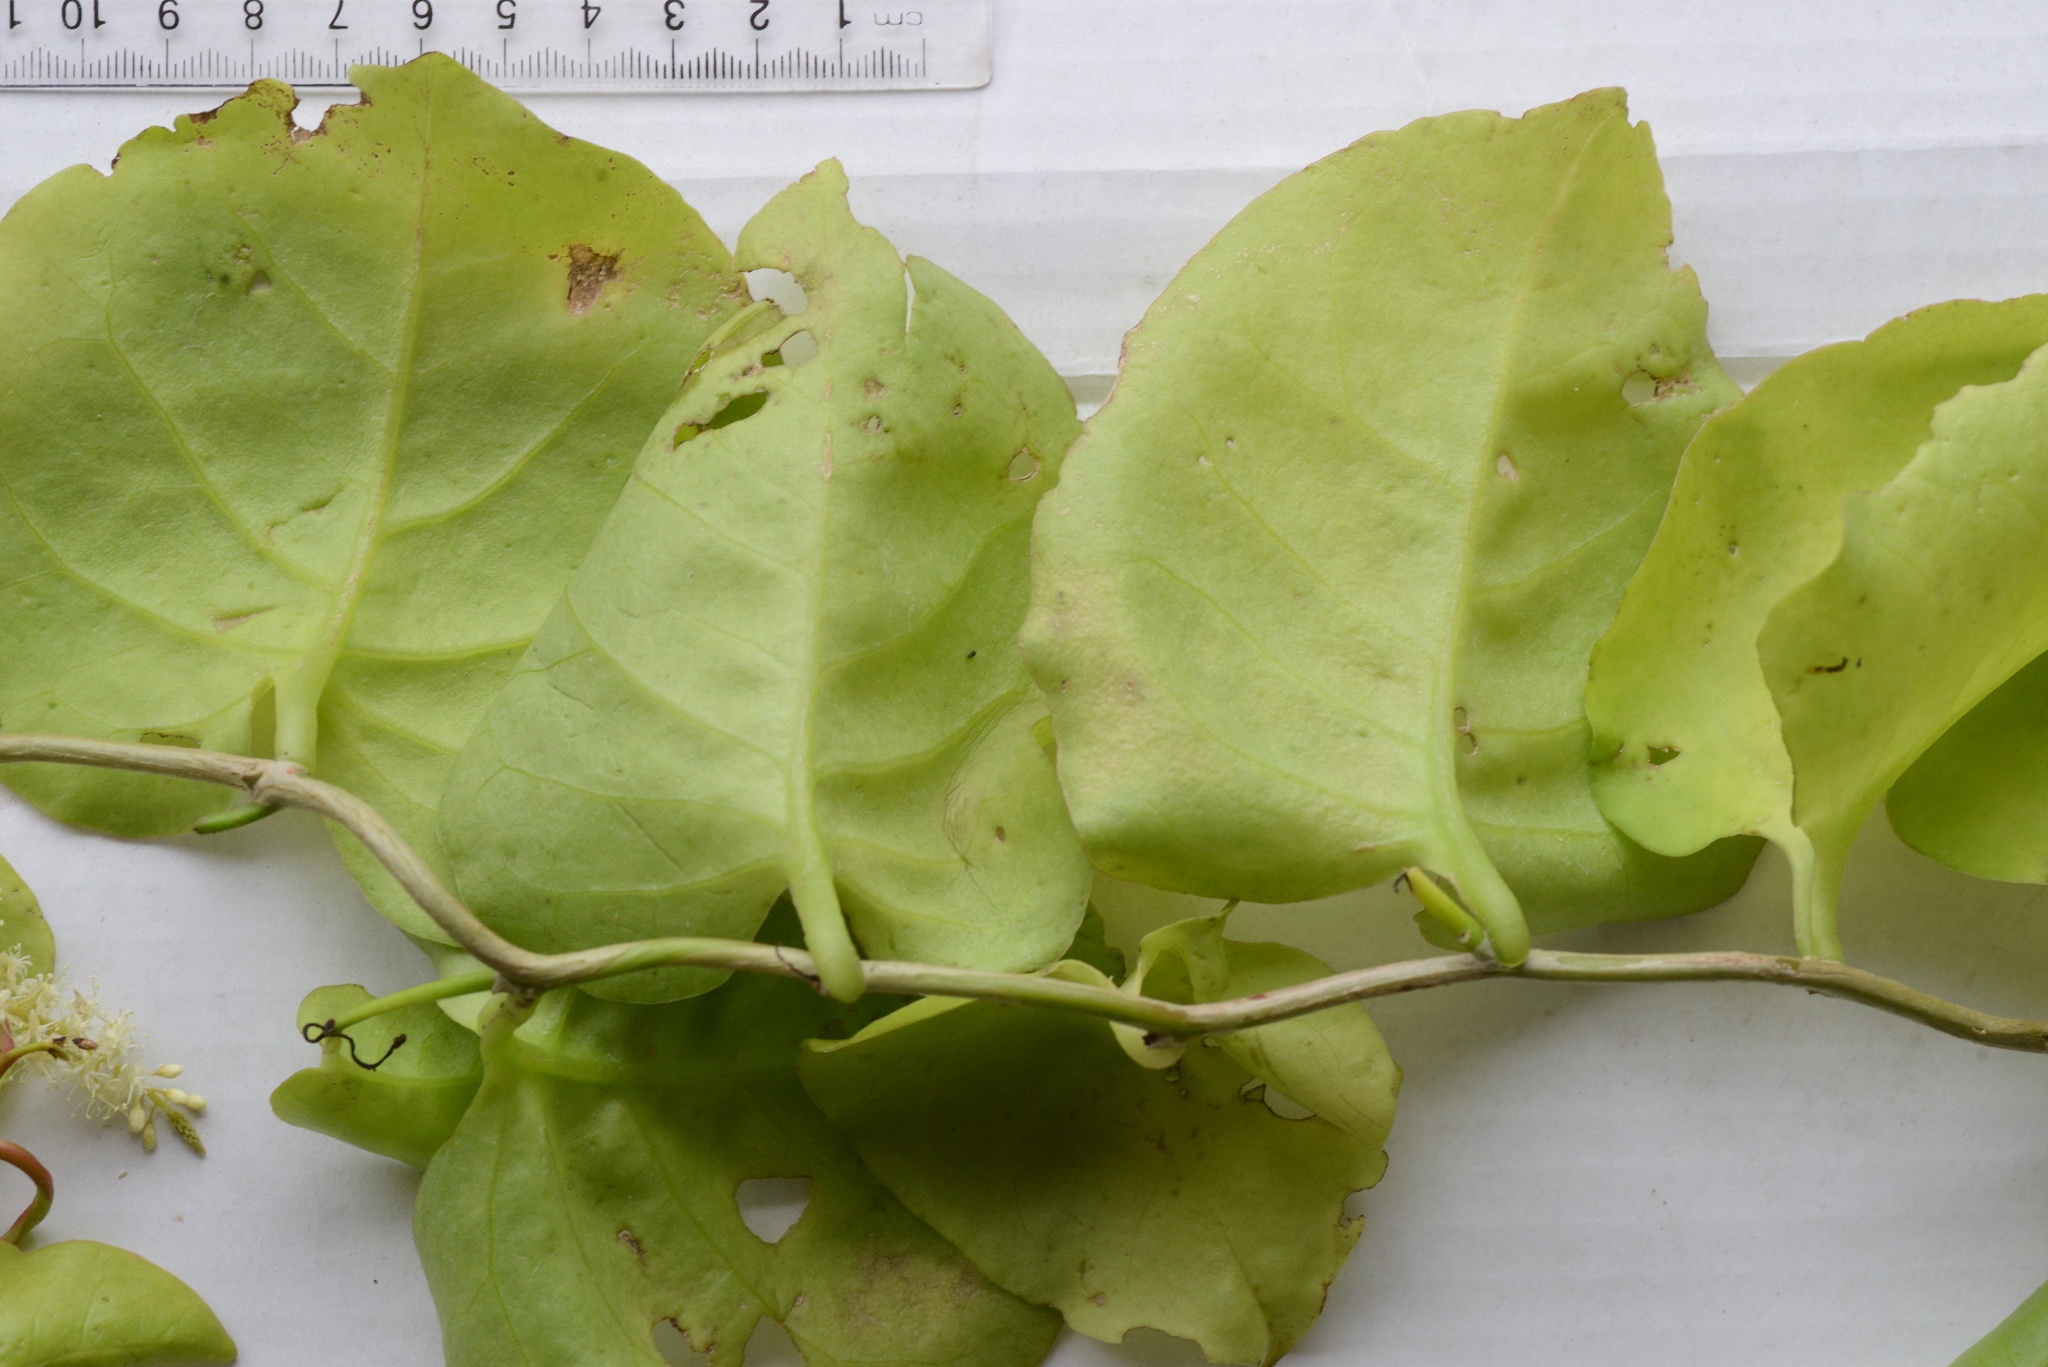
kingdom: Plantae
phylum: Tracheophyta
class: Magnoliopsida
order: Caryophyllales
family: Basellaceae
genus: Anredera
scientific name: Anredera cordifolia
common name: Heartleaf madeiravine
